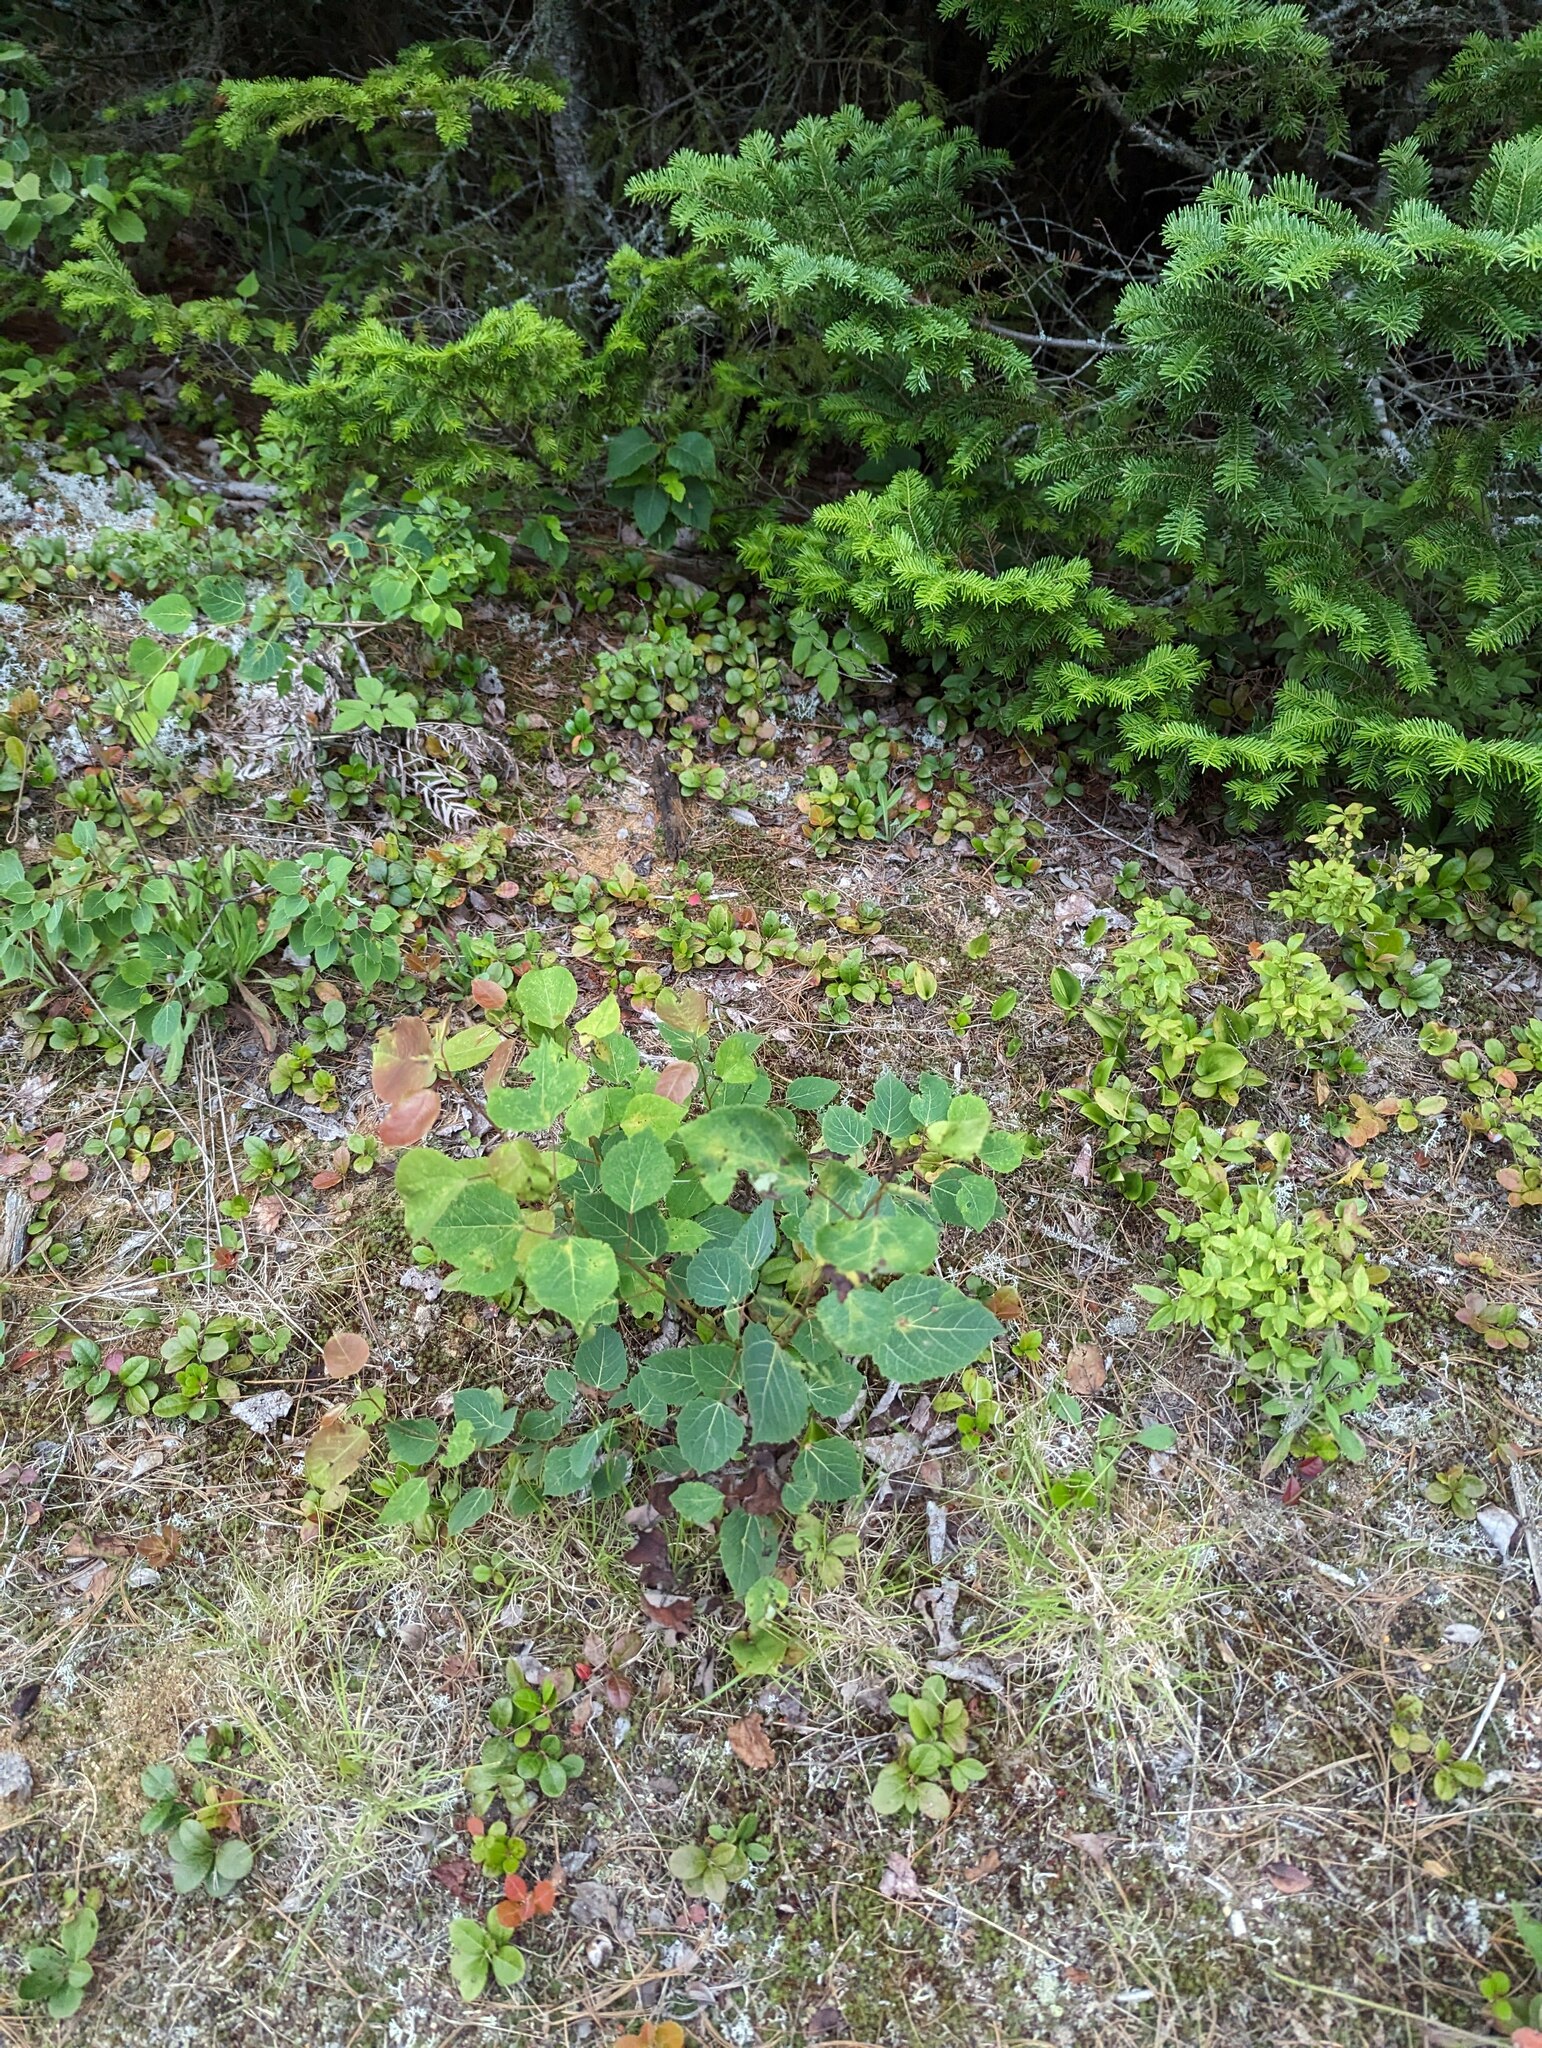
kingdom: Plantae
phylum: Tracheophyta
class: Magnoliopsida
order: Malpighiales
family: Salicaceae
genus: Populus
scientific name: Populus grandidentata
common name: Bigtooth aspen
